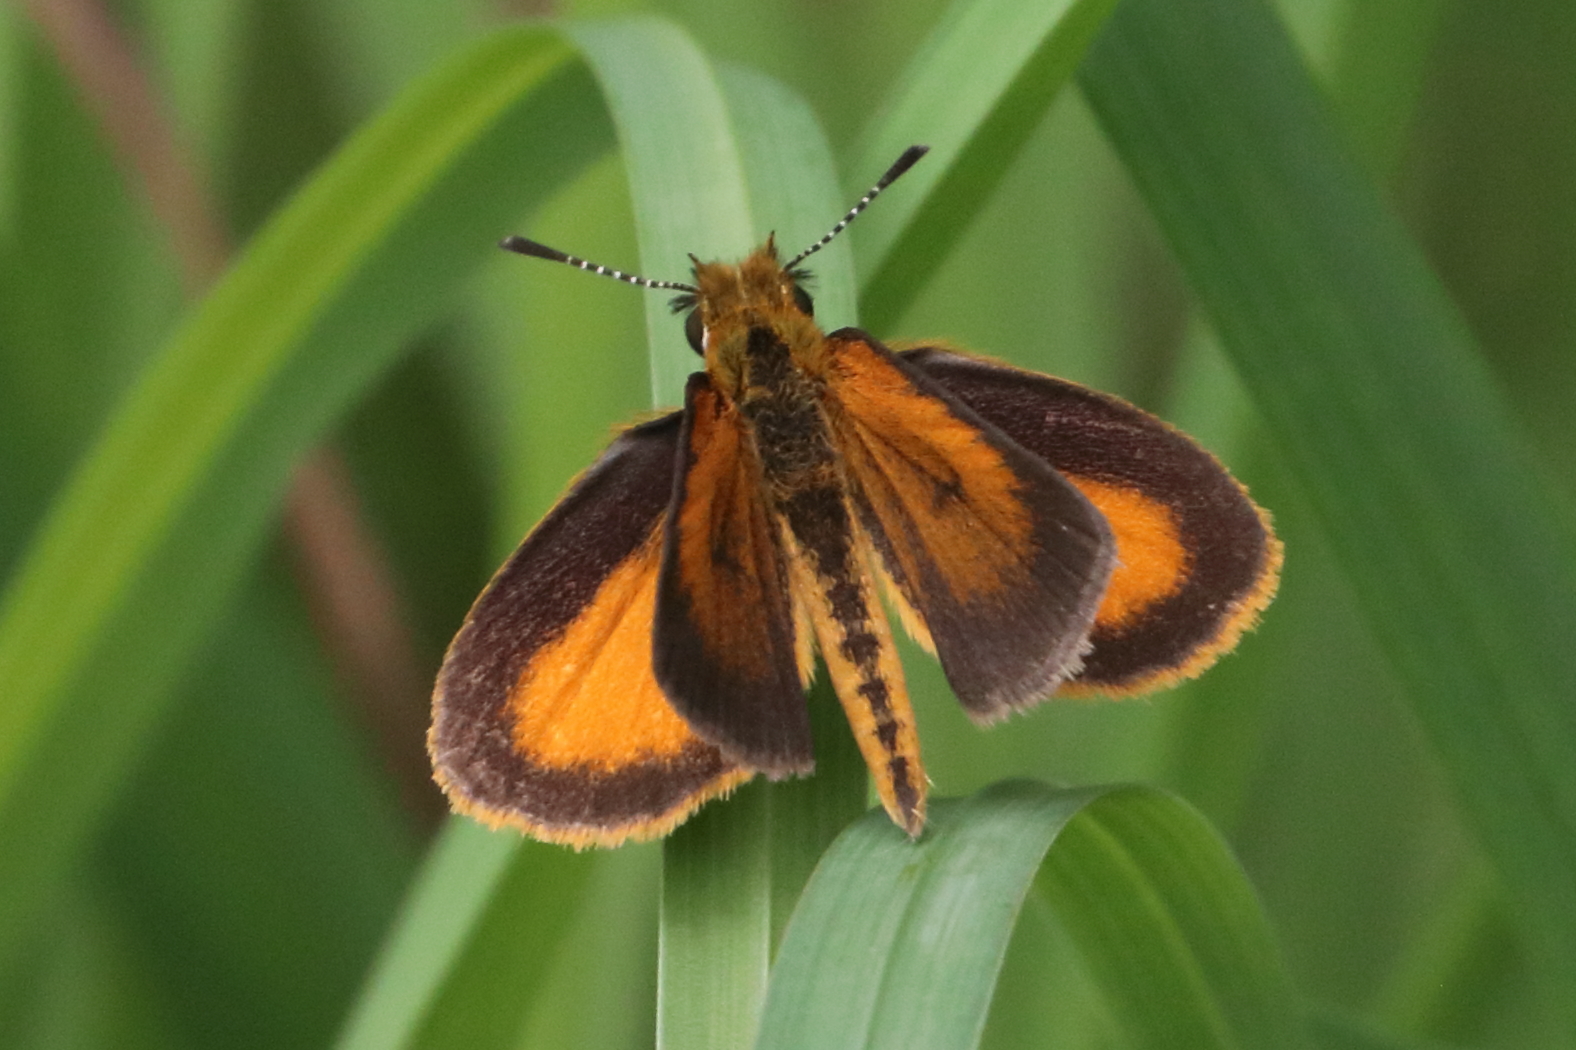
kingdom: Animalia
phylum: Arthropoda
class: Insecta
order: Lepidoptera
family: Hesperiidae
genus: Ancyloxypha
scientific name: Ancyloxypha numitor
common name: Least skipper
